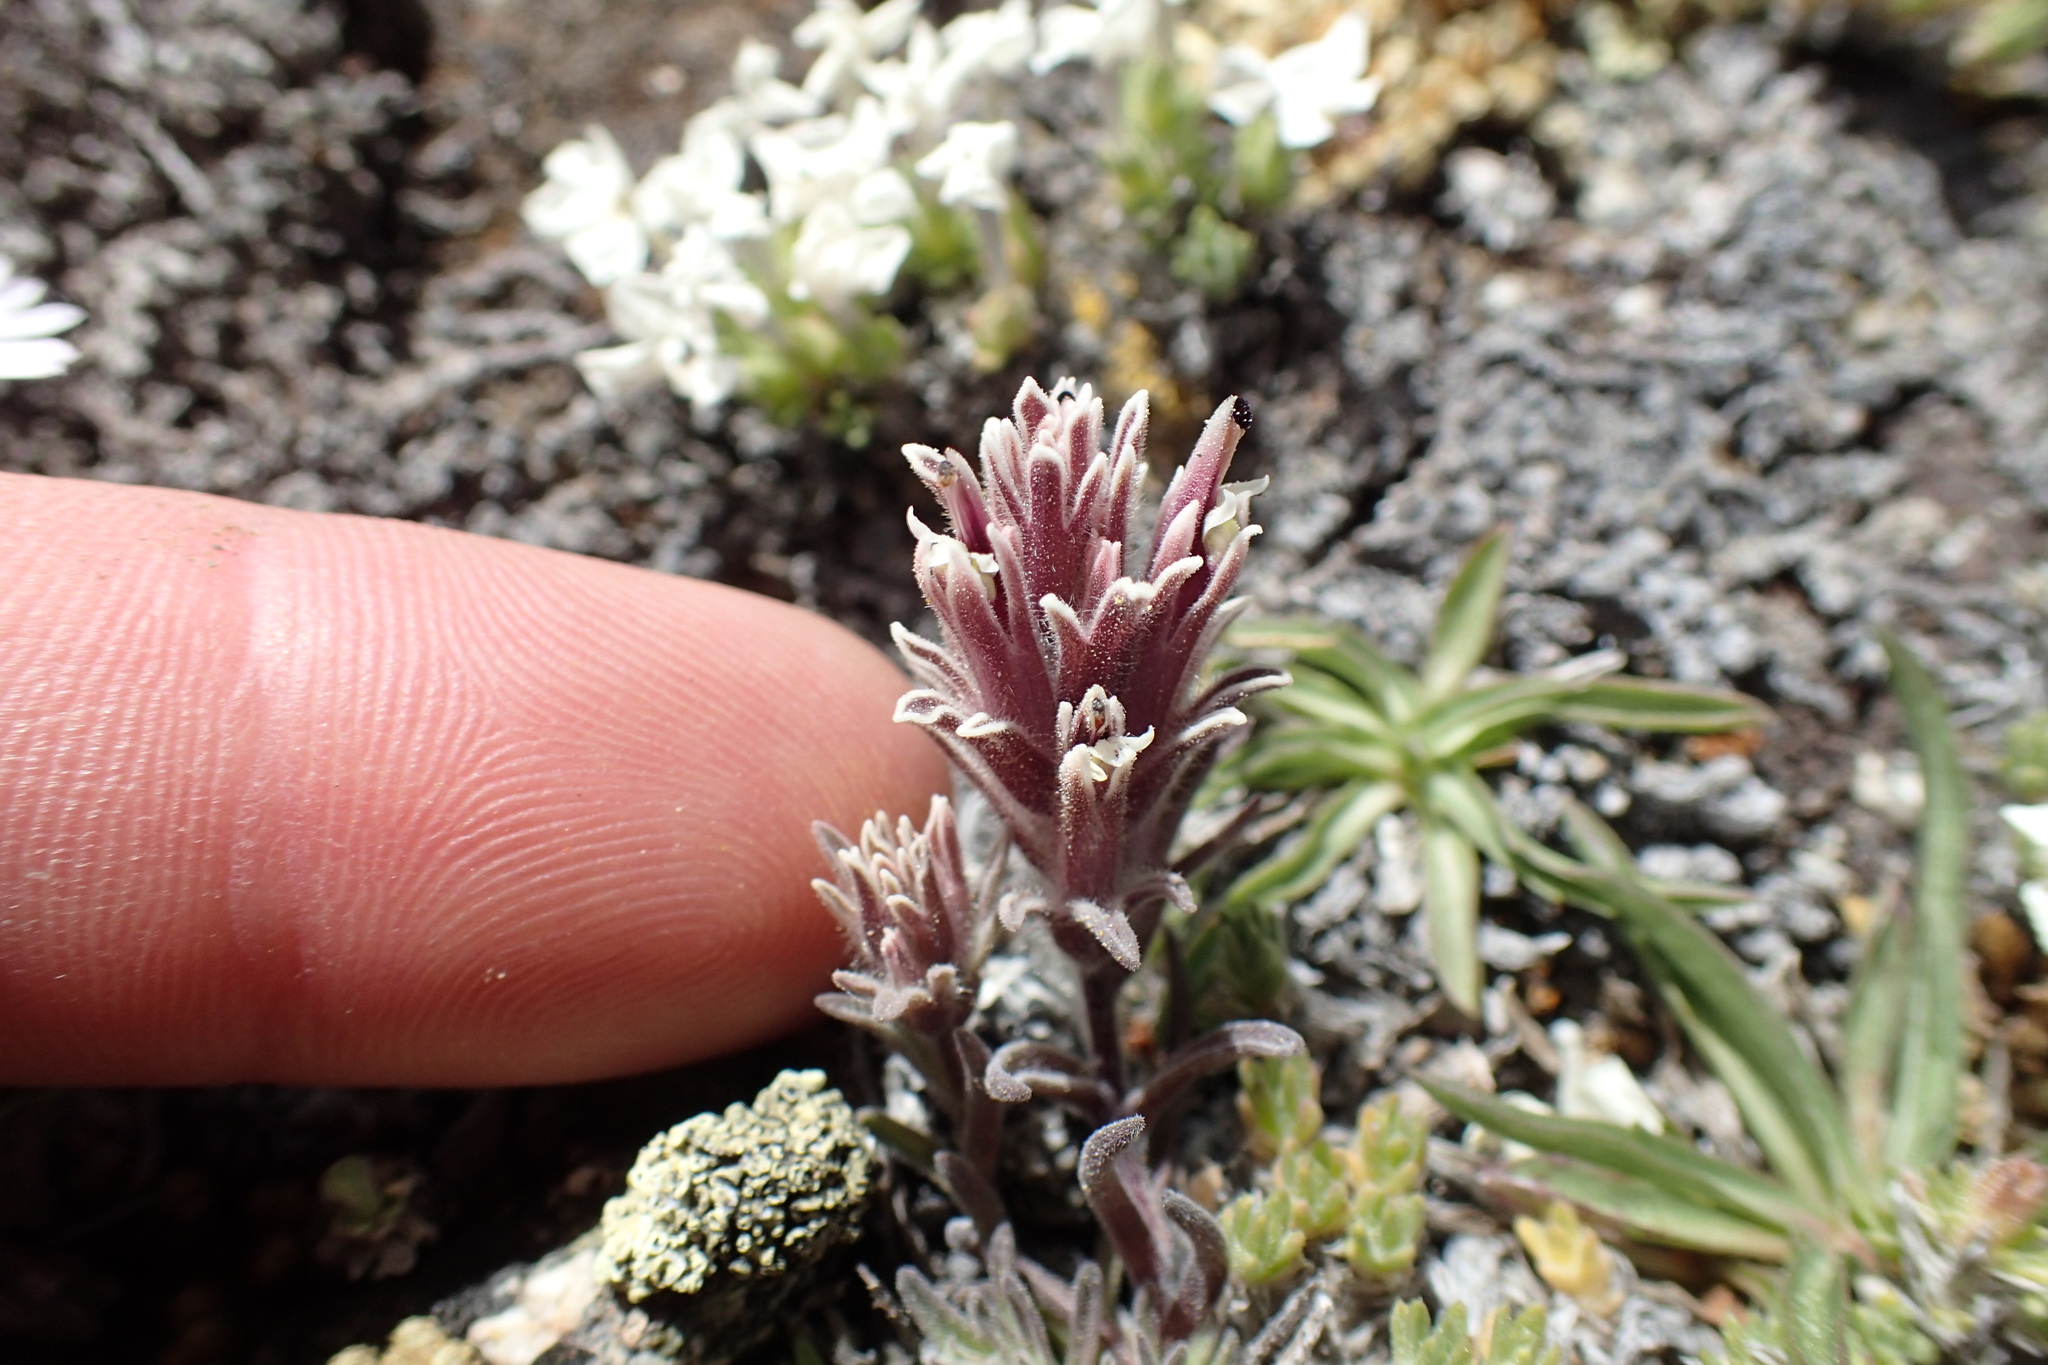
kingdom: Plantae
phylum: Tracheophyta
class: Magnoliopsida
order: Lamiales
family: Orobanchaceae
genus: Castilleja
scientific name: Castilleja nana
